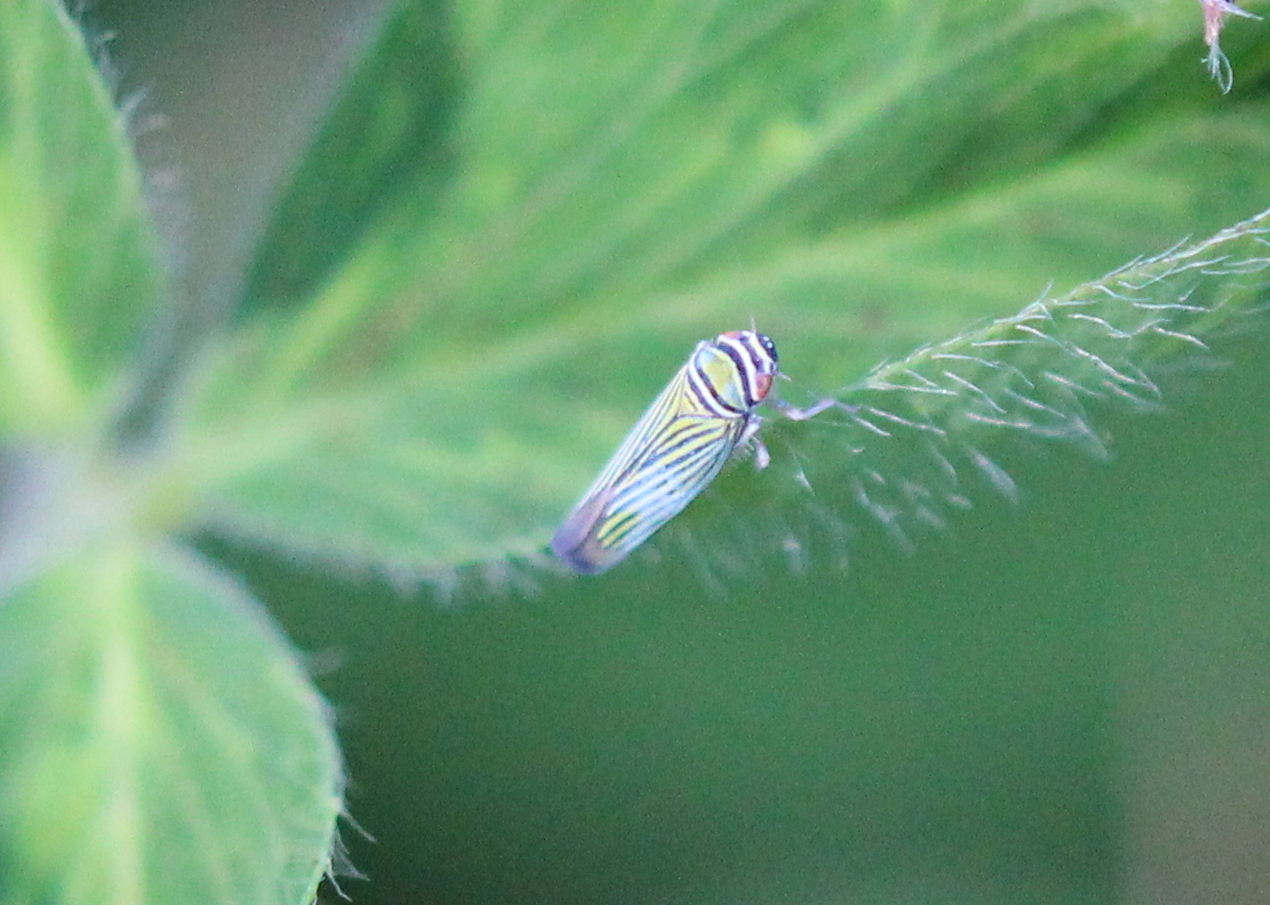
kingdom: Animalia
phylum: Arthropoda
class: Insecta
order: Hemiptera
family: Cicadellidae
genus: Tylozygus
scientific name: Tylozygus bifidus
